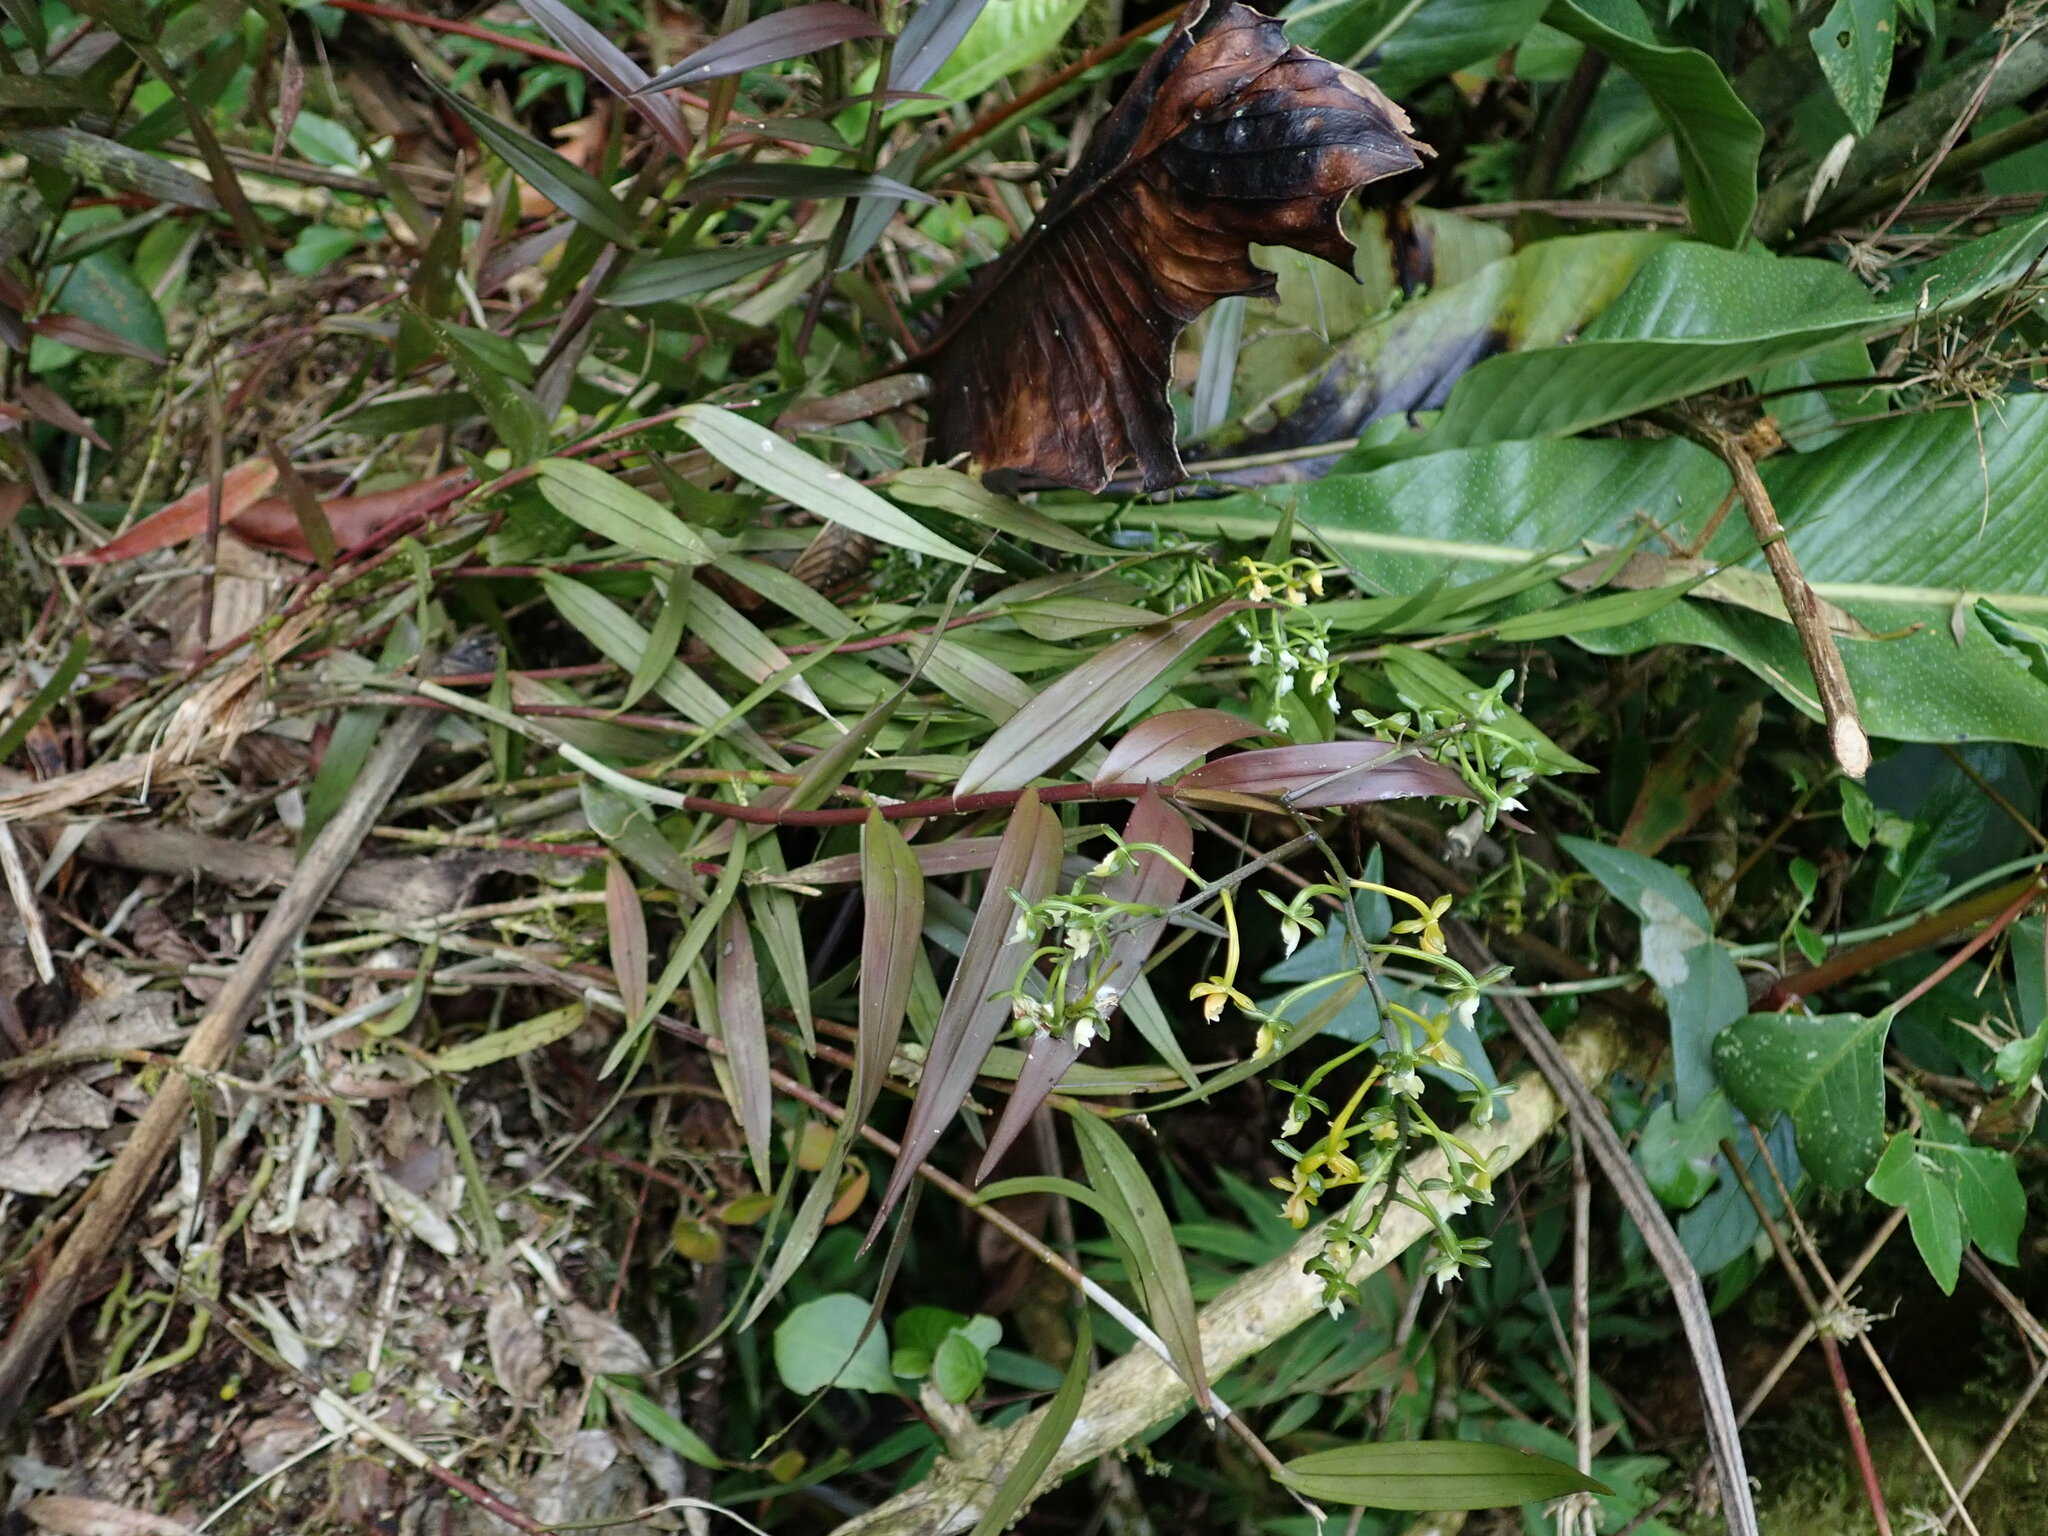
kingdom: Plantae
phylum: Tracheophyta
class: Liliopsida
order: Asparagales
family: Orchidaceae
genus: Epidendrum
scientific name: Epidendrum parviflorum
